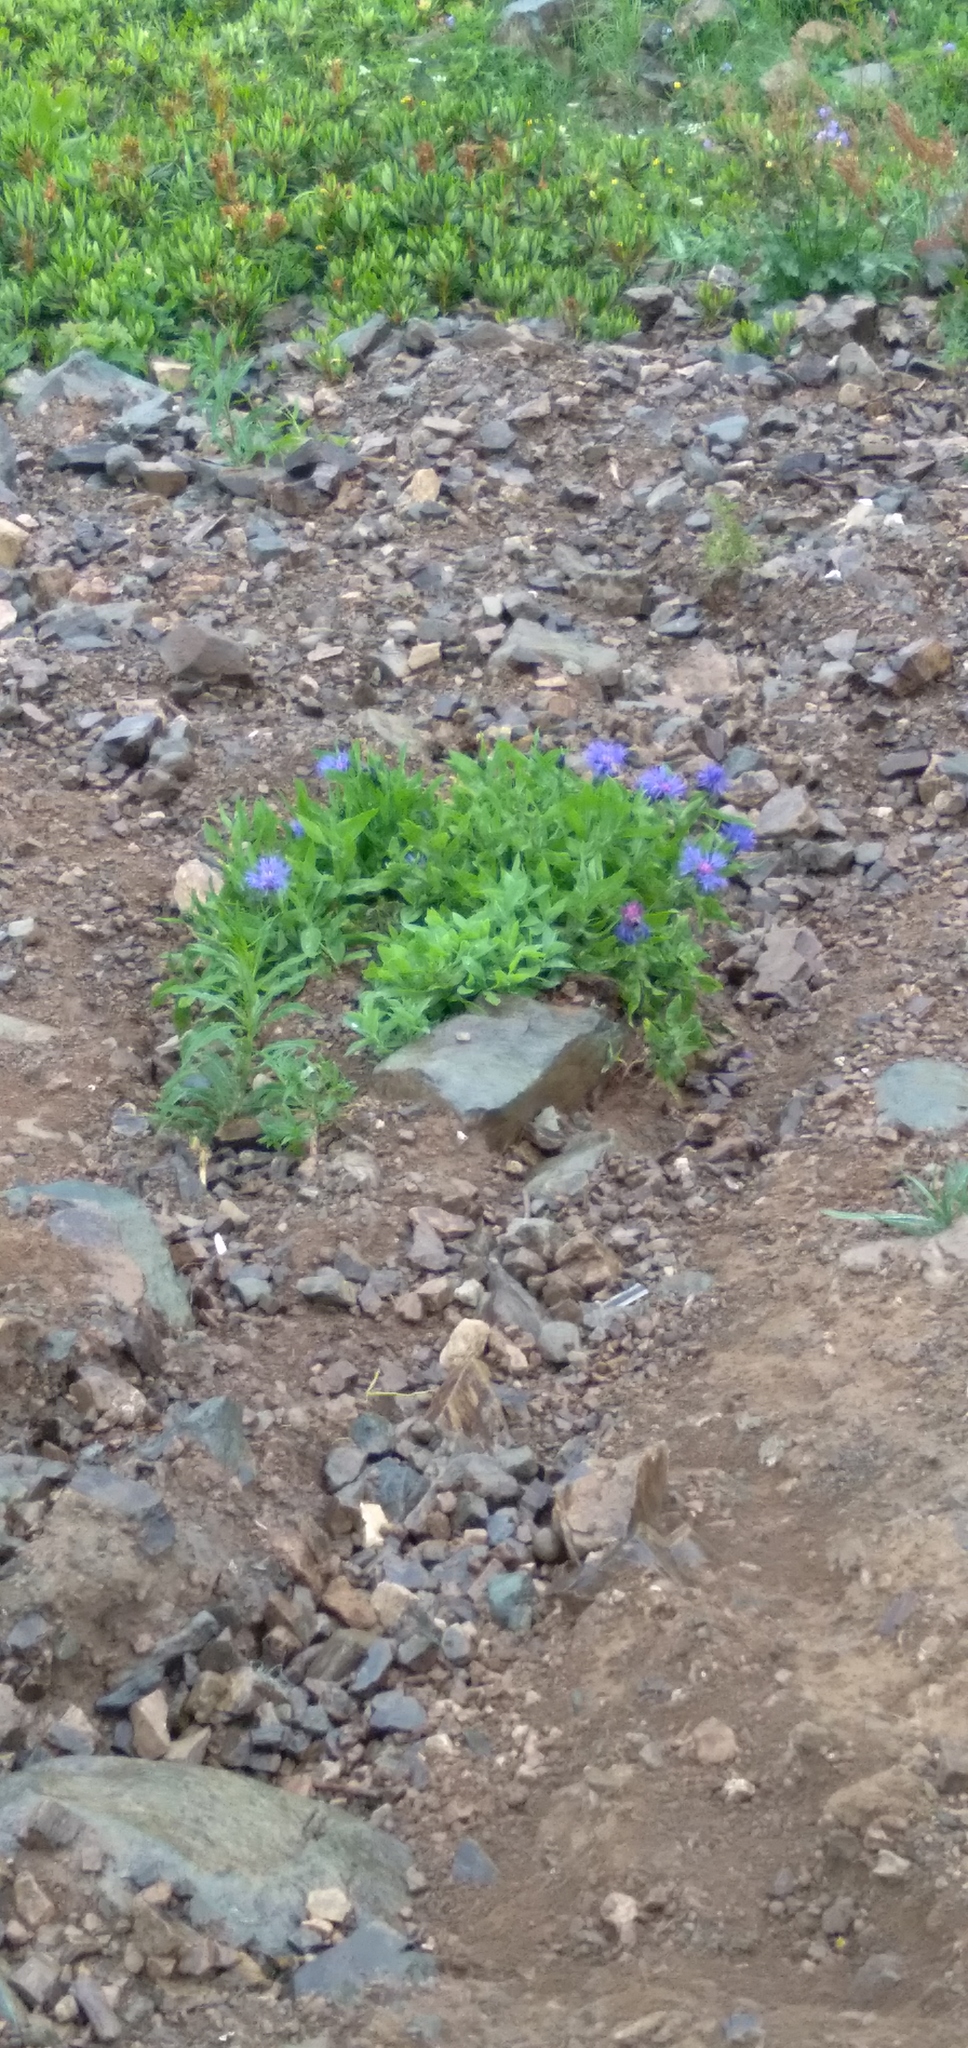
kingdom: Plantae
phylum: Tracheophyta
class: Magnoliopsida
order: Asterales
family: Asteraceae
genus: Centaurea
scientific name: Centaurea nigrofimbria
